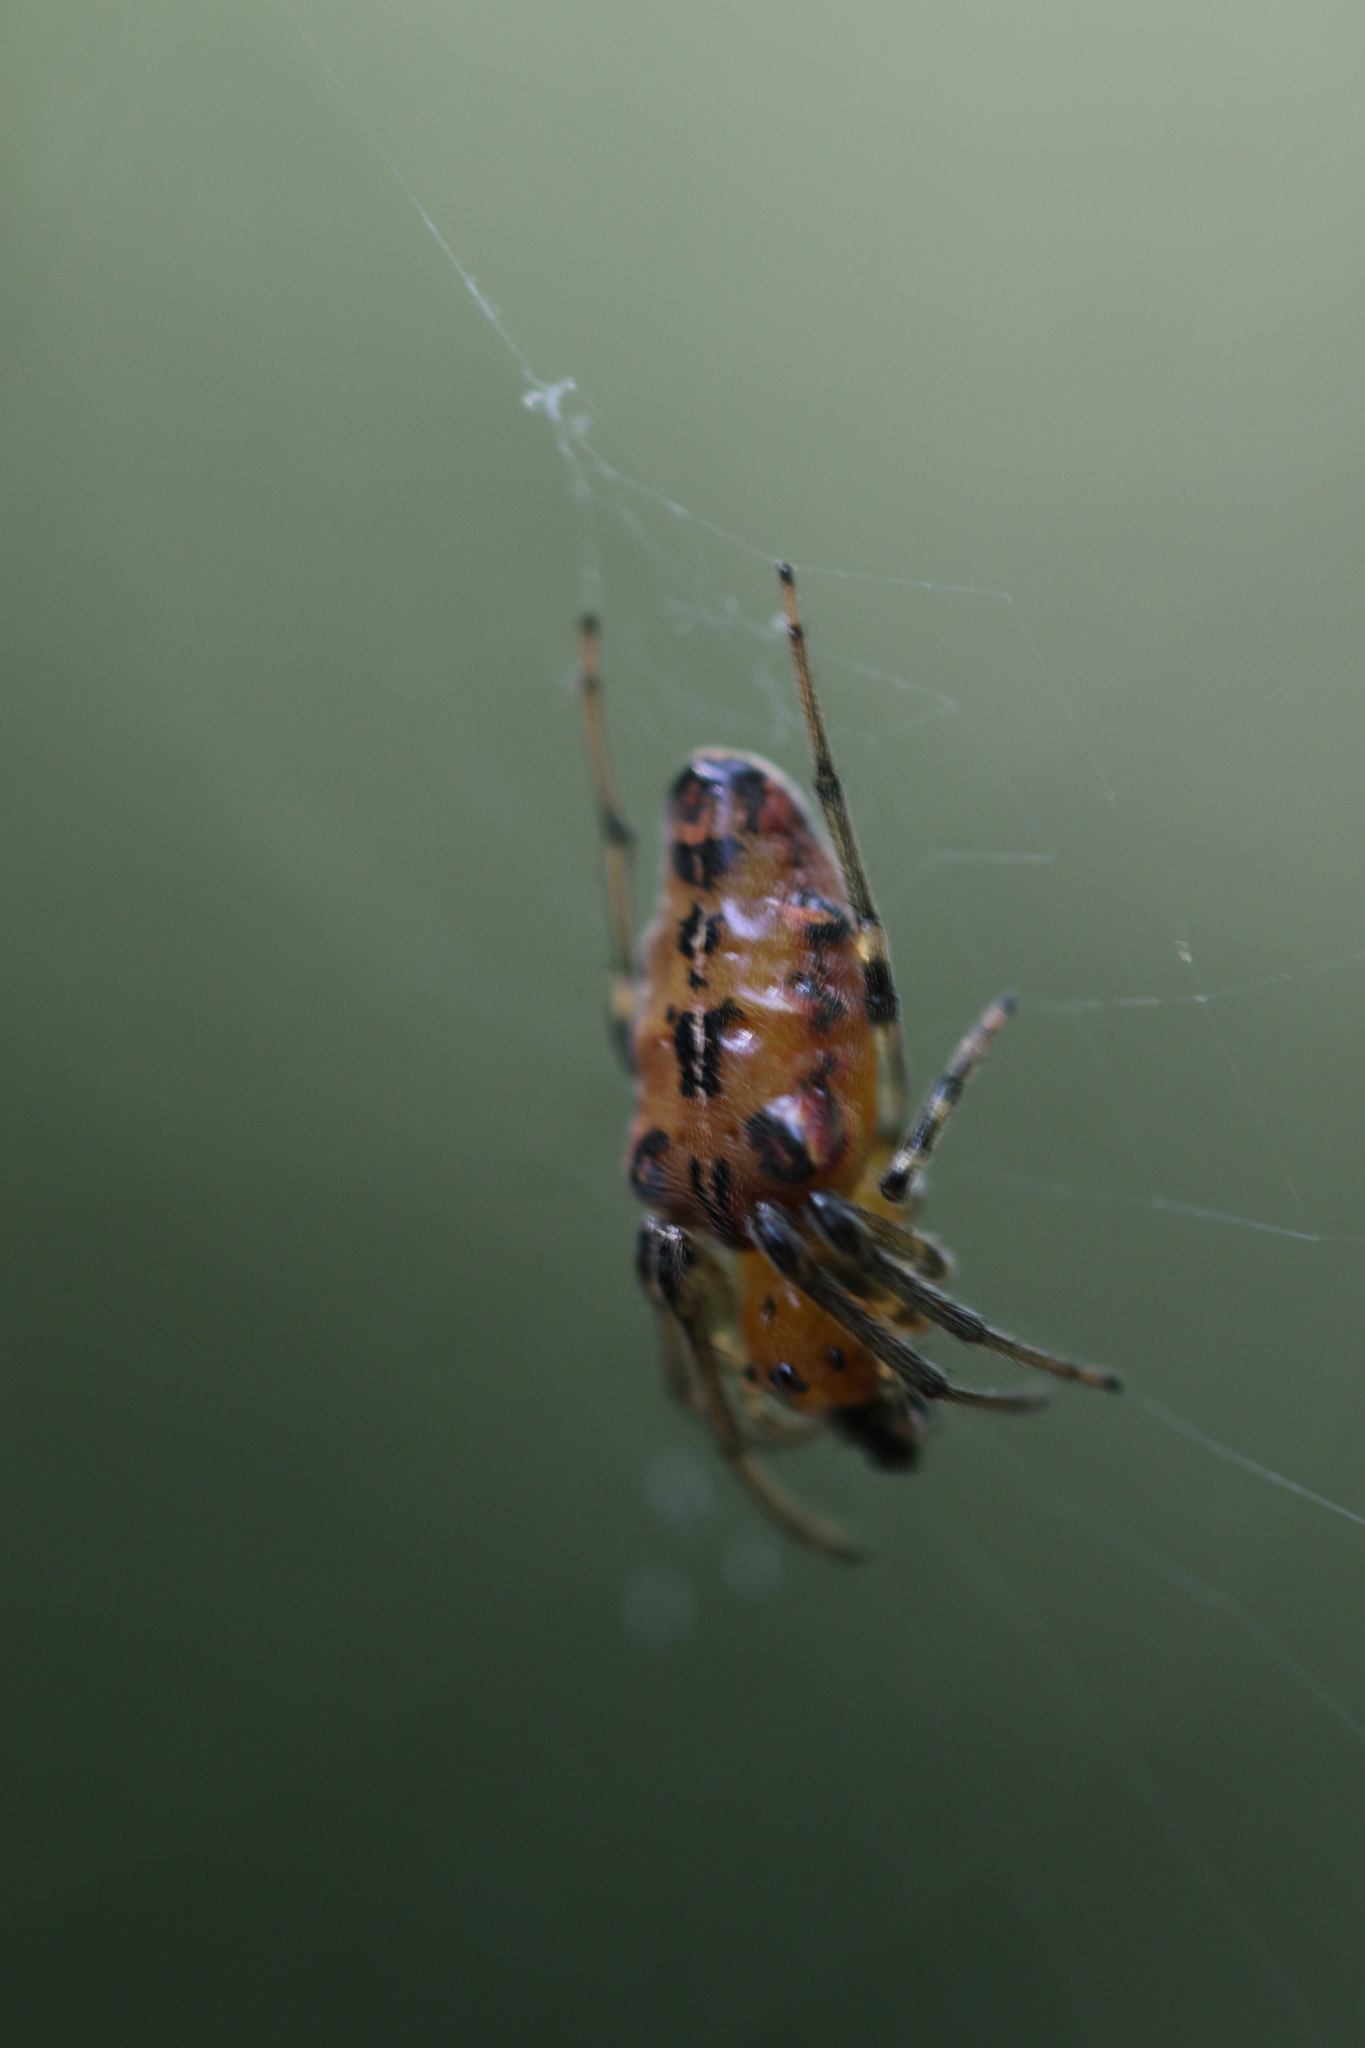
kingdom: Animalia
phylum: Arthropoda
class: Arachnida
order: Araneae
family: Araneidae
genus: Alpaida
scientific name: Alpaida scriba
